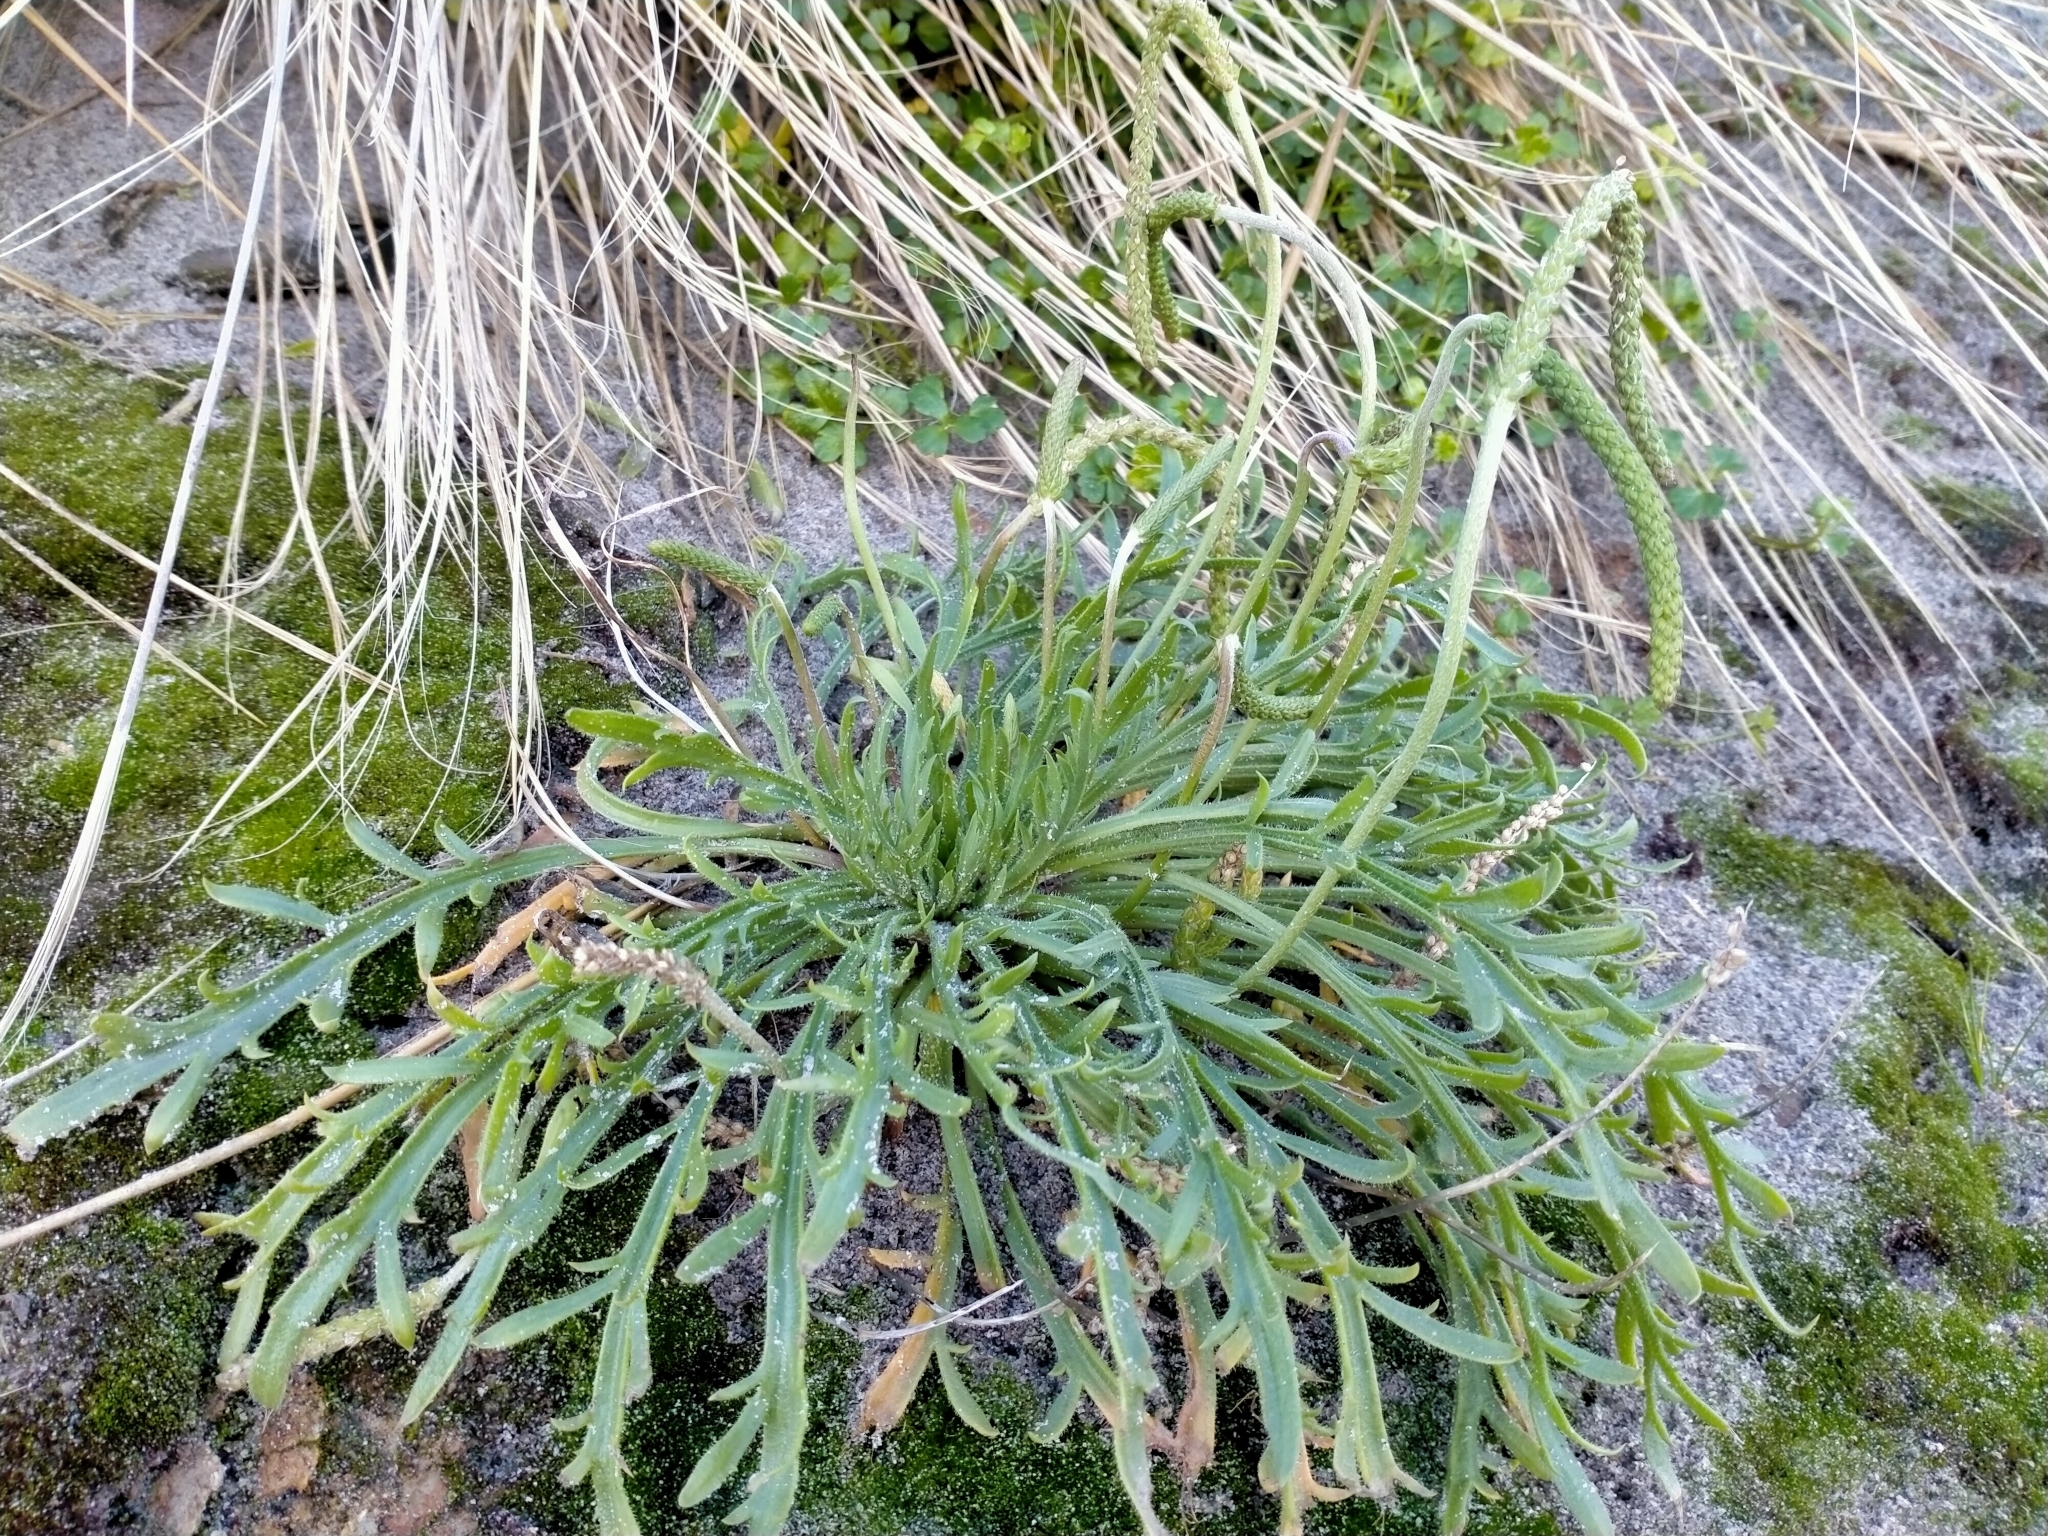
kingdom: Plantae
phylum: Tracheophyta
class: Magnoliopsida
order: Lamiales
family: Plantaginaceae
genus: Plantago
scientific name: Plantago coronopus
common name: Buck's-horn plantain
